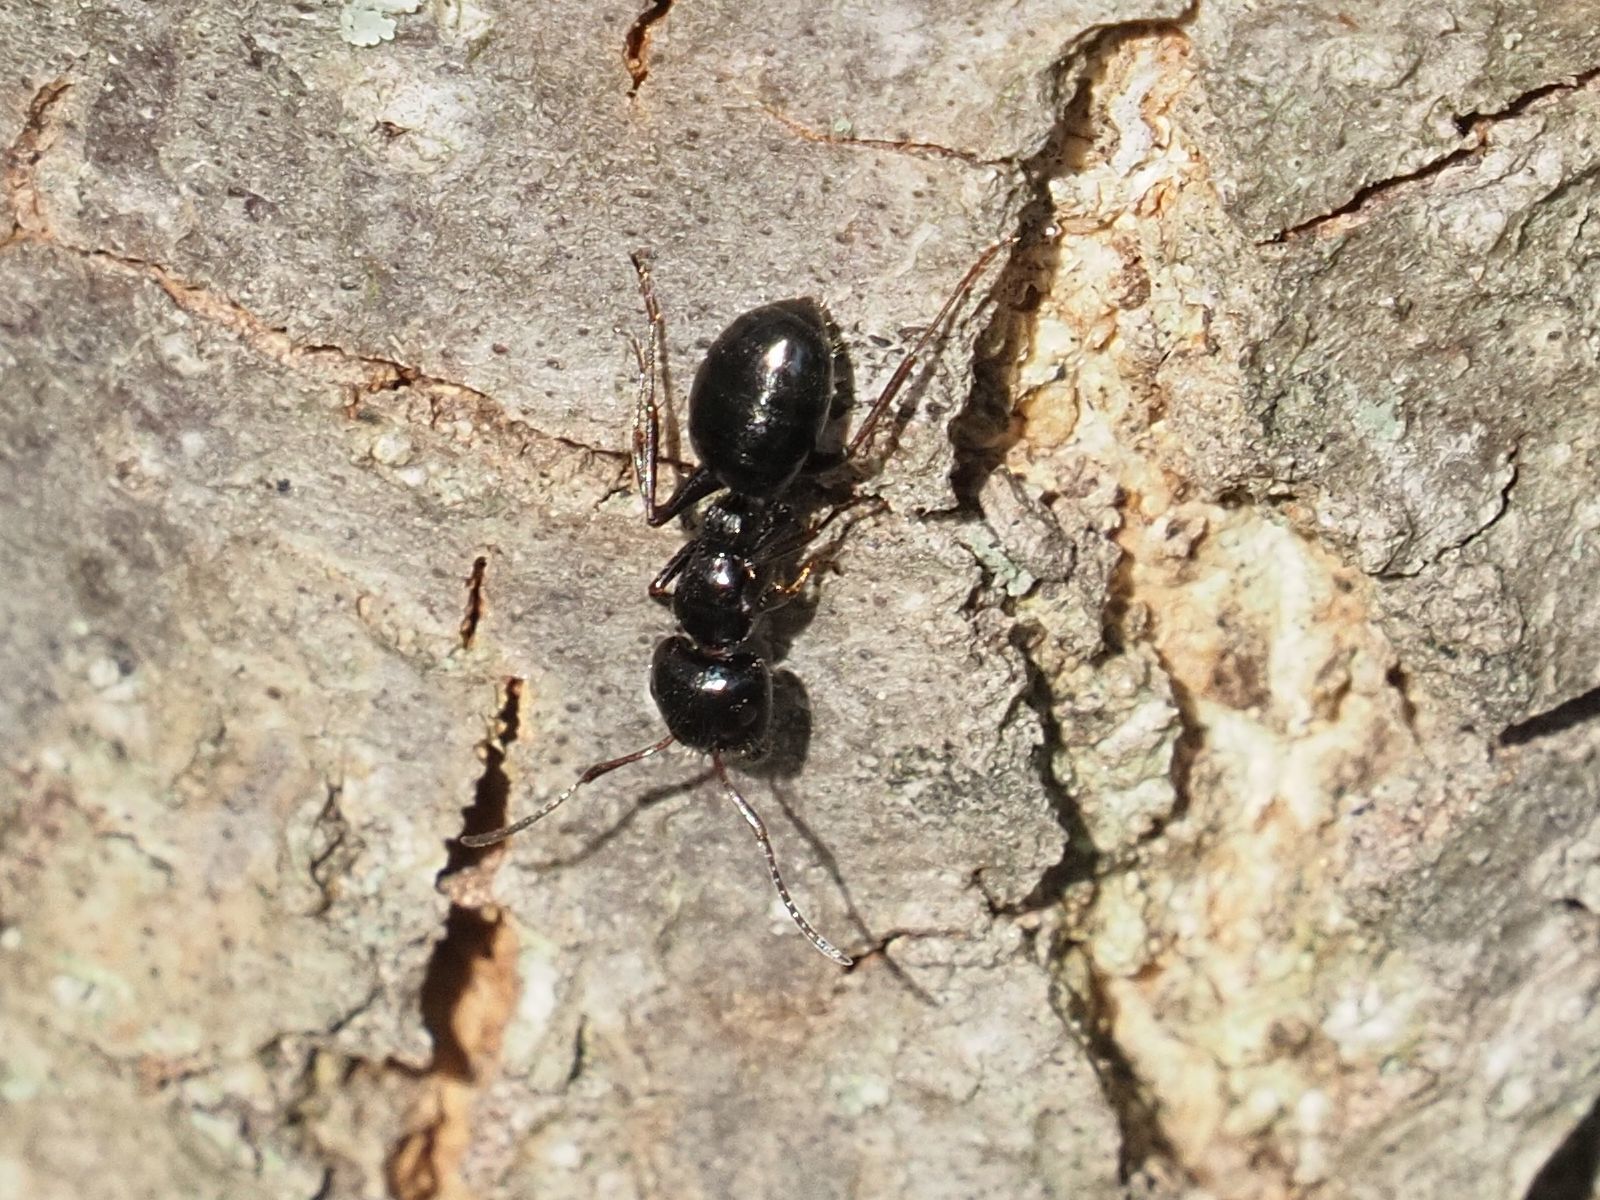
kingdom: Animalia
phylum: Arthropoda
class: Insecta
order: Hymenoptera
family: Formicidae
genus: Camponotus
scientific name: Camponotus piceus
